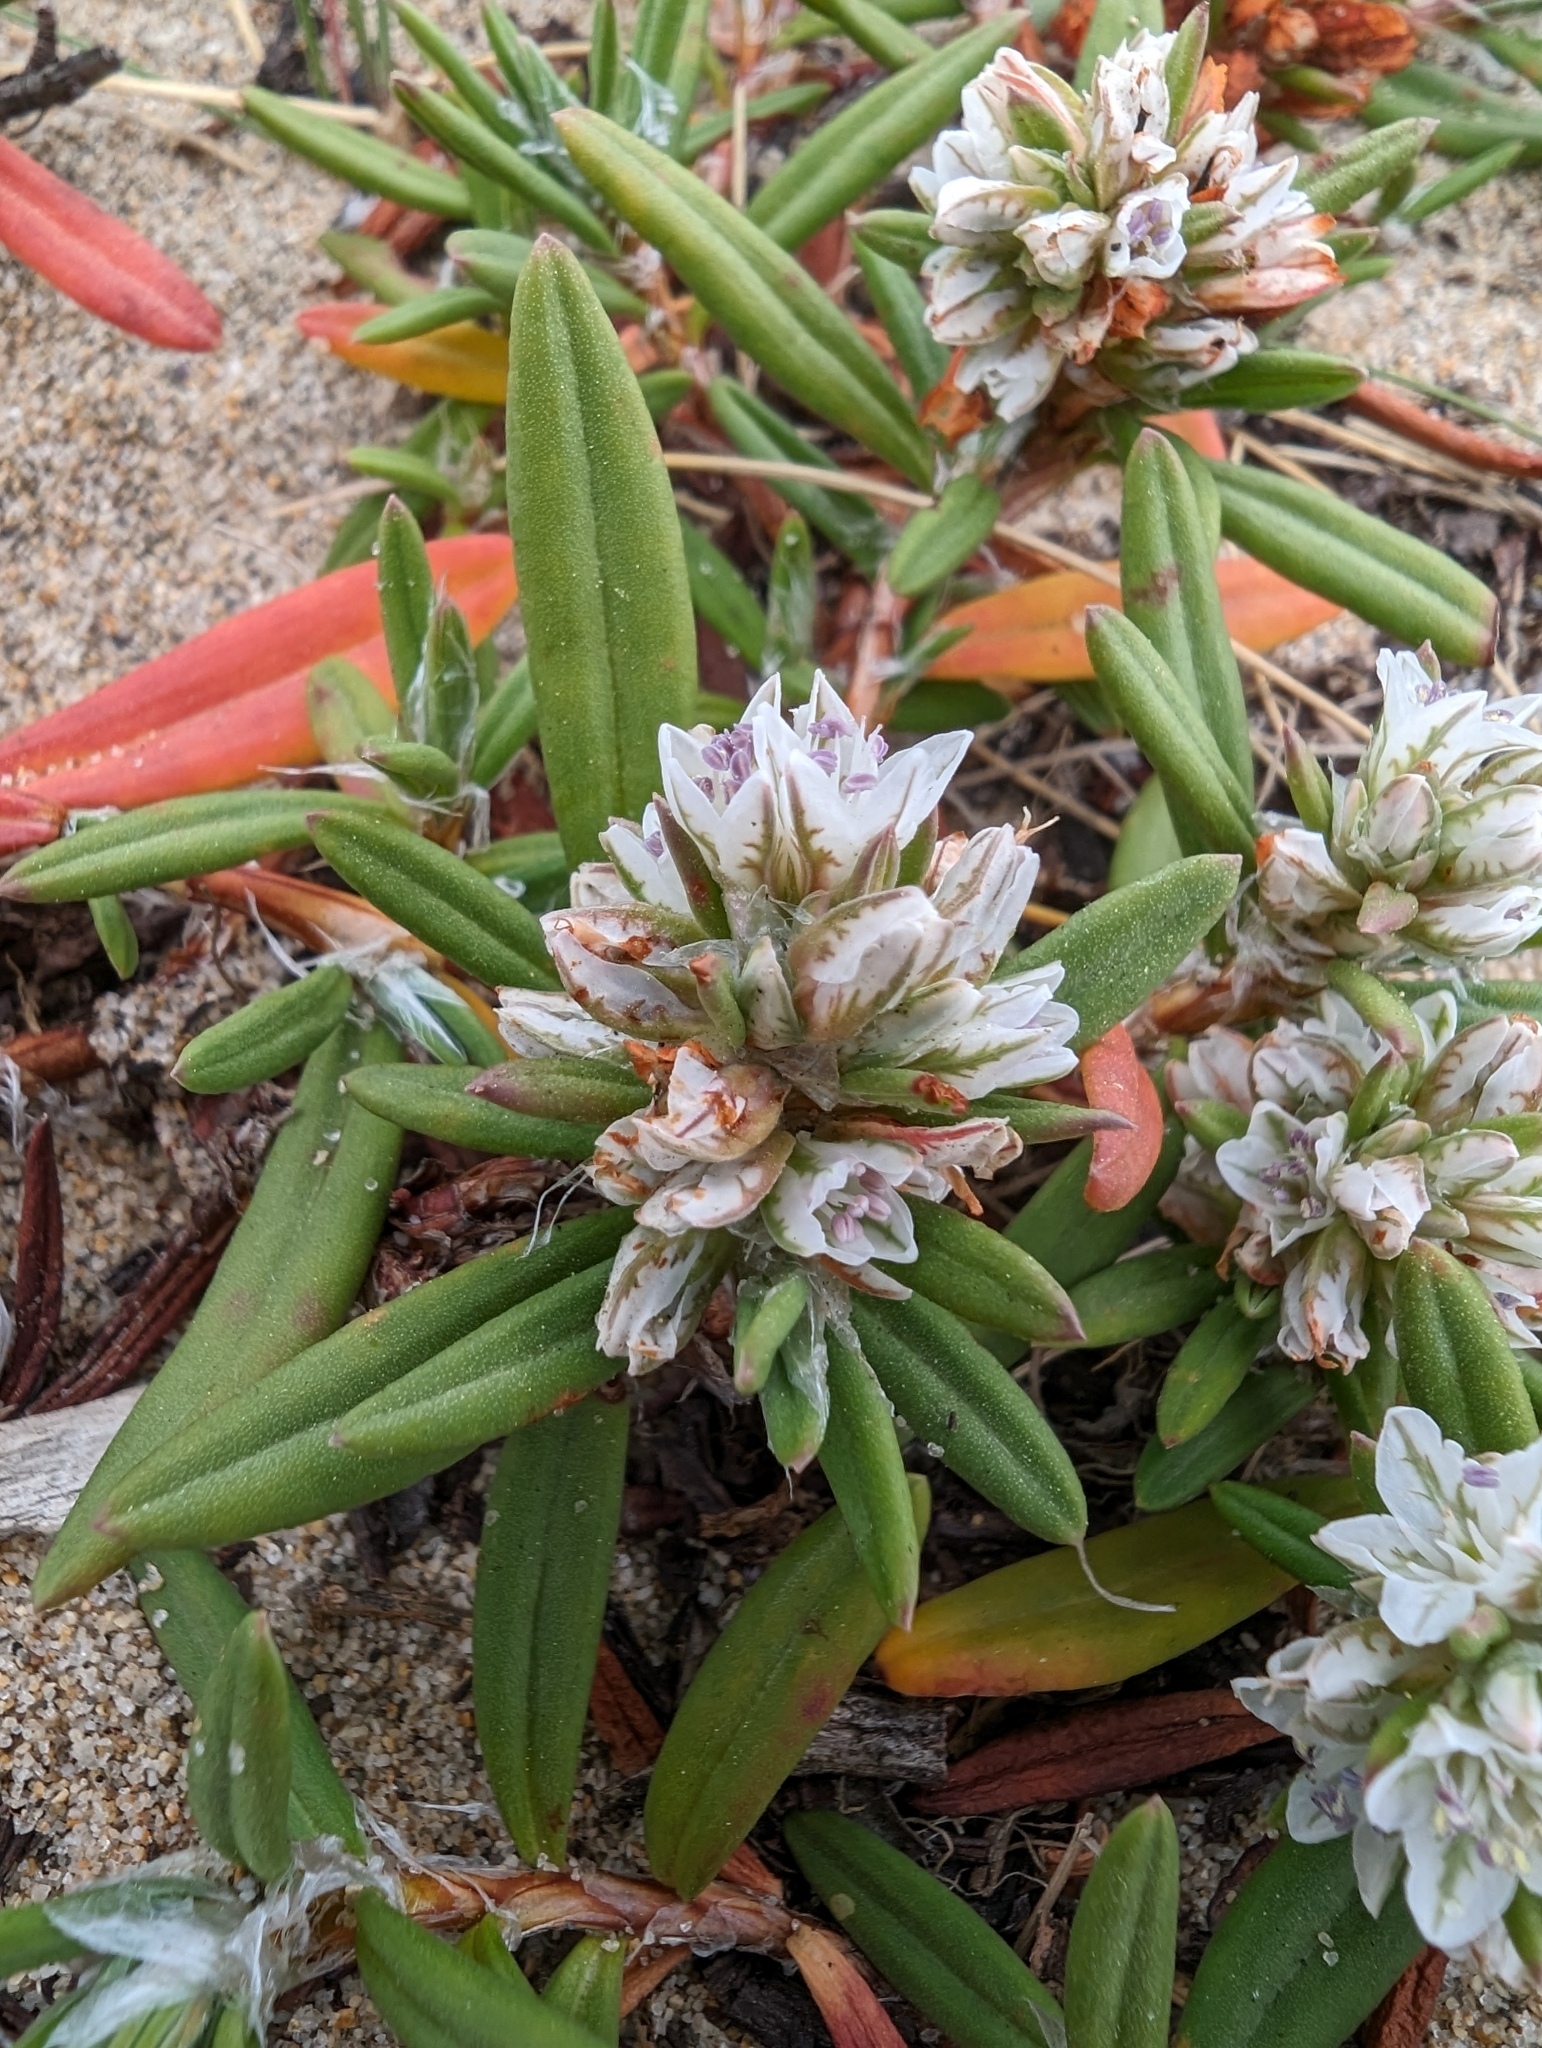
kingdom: Plantae
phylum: Tracheophyta
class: Magnoliopsida
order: Caryophyllales
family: Polygonaceae
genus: Polygonum
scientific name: Polygonum paronychia
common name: Dune knotweed
